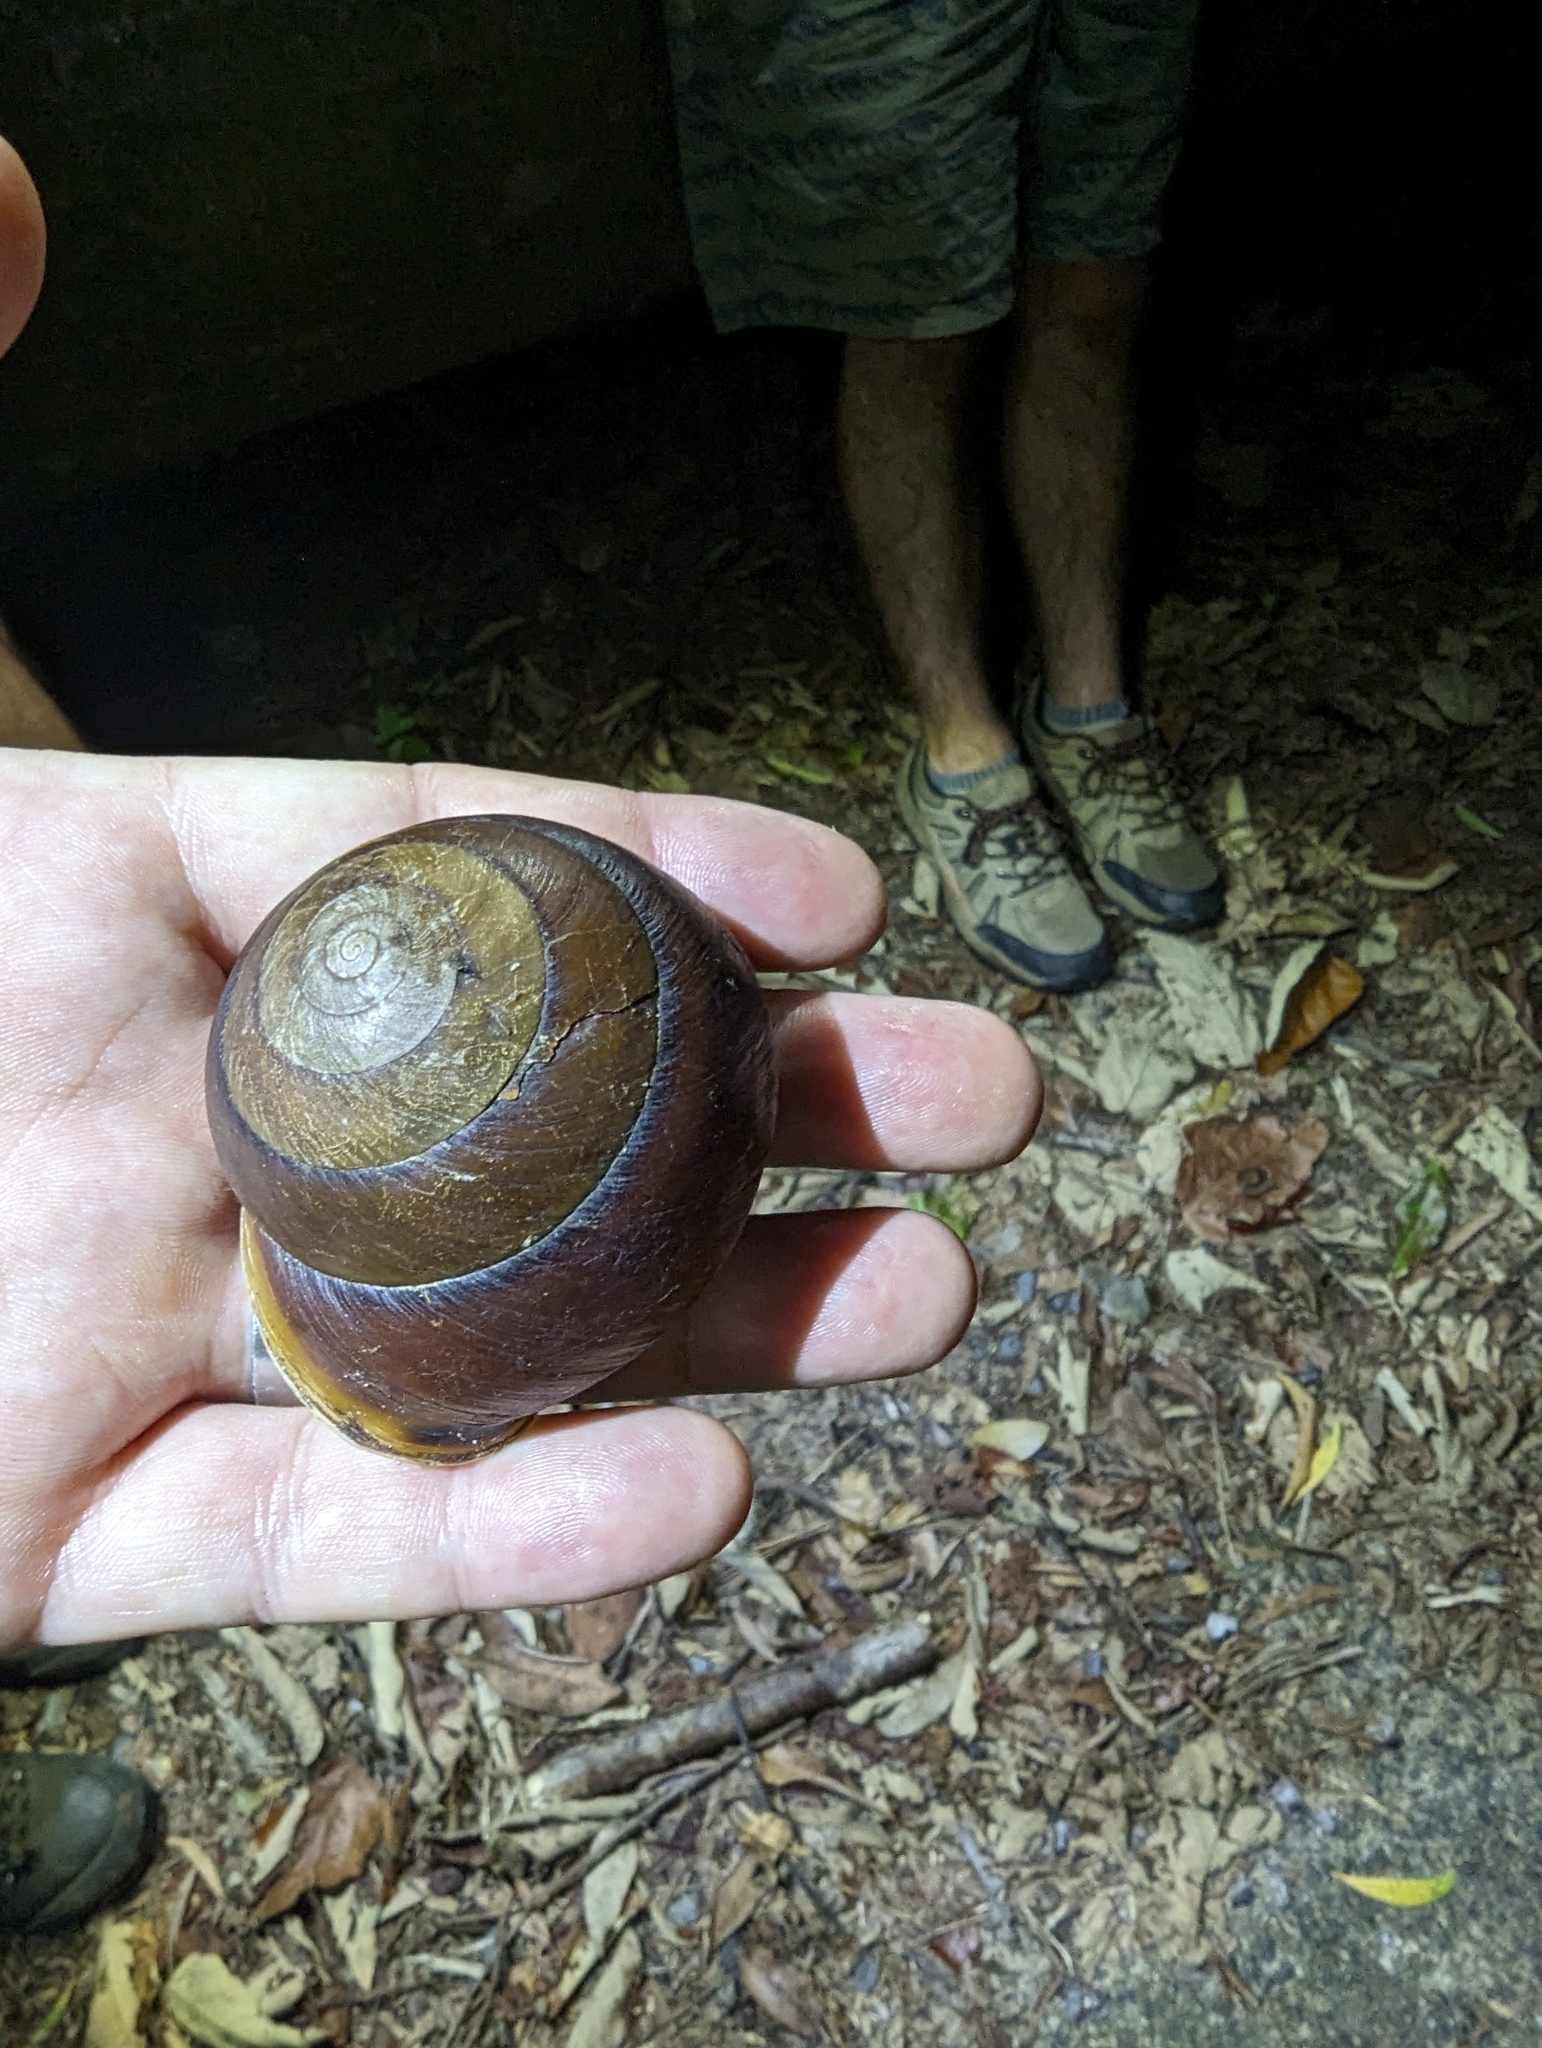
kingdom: Animalia
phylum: Mollusca
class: Gastropoda
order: Stylommatophora
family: Camaenidae
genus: Hadra
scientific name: Hadra webbi
